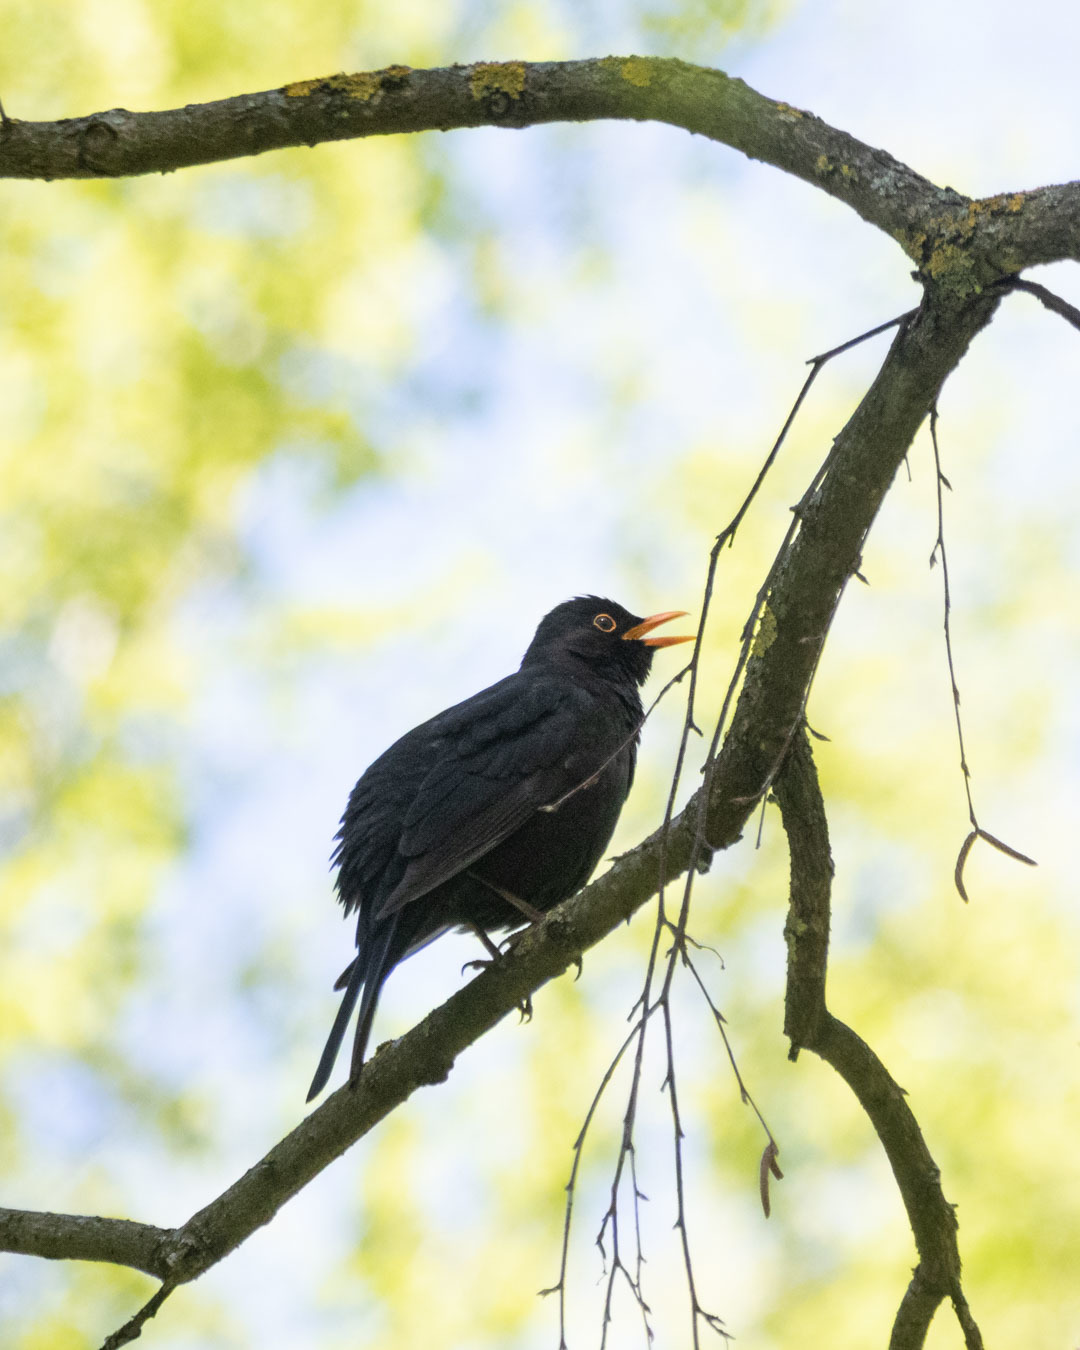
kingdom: Animalia
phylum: Chordata
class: Aves
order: Passeriformes
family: Turdidae
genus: Turdus
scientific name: Turdus merula
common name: Common blackbird
